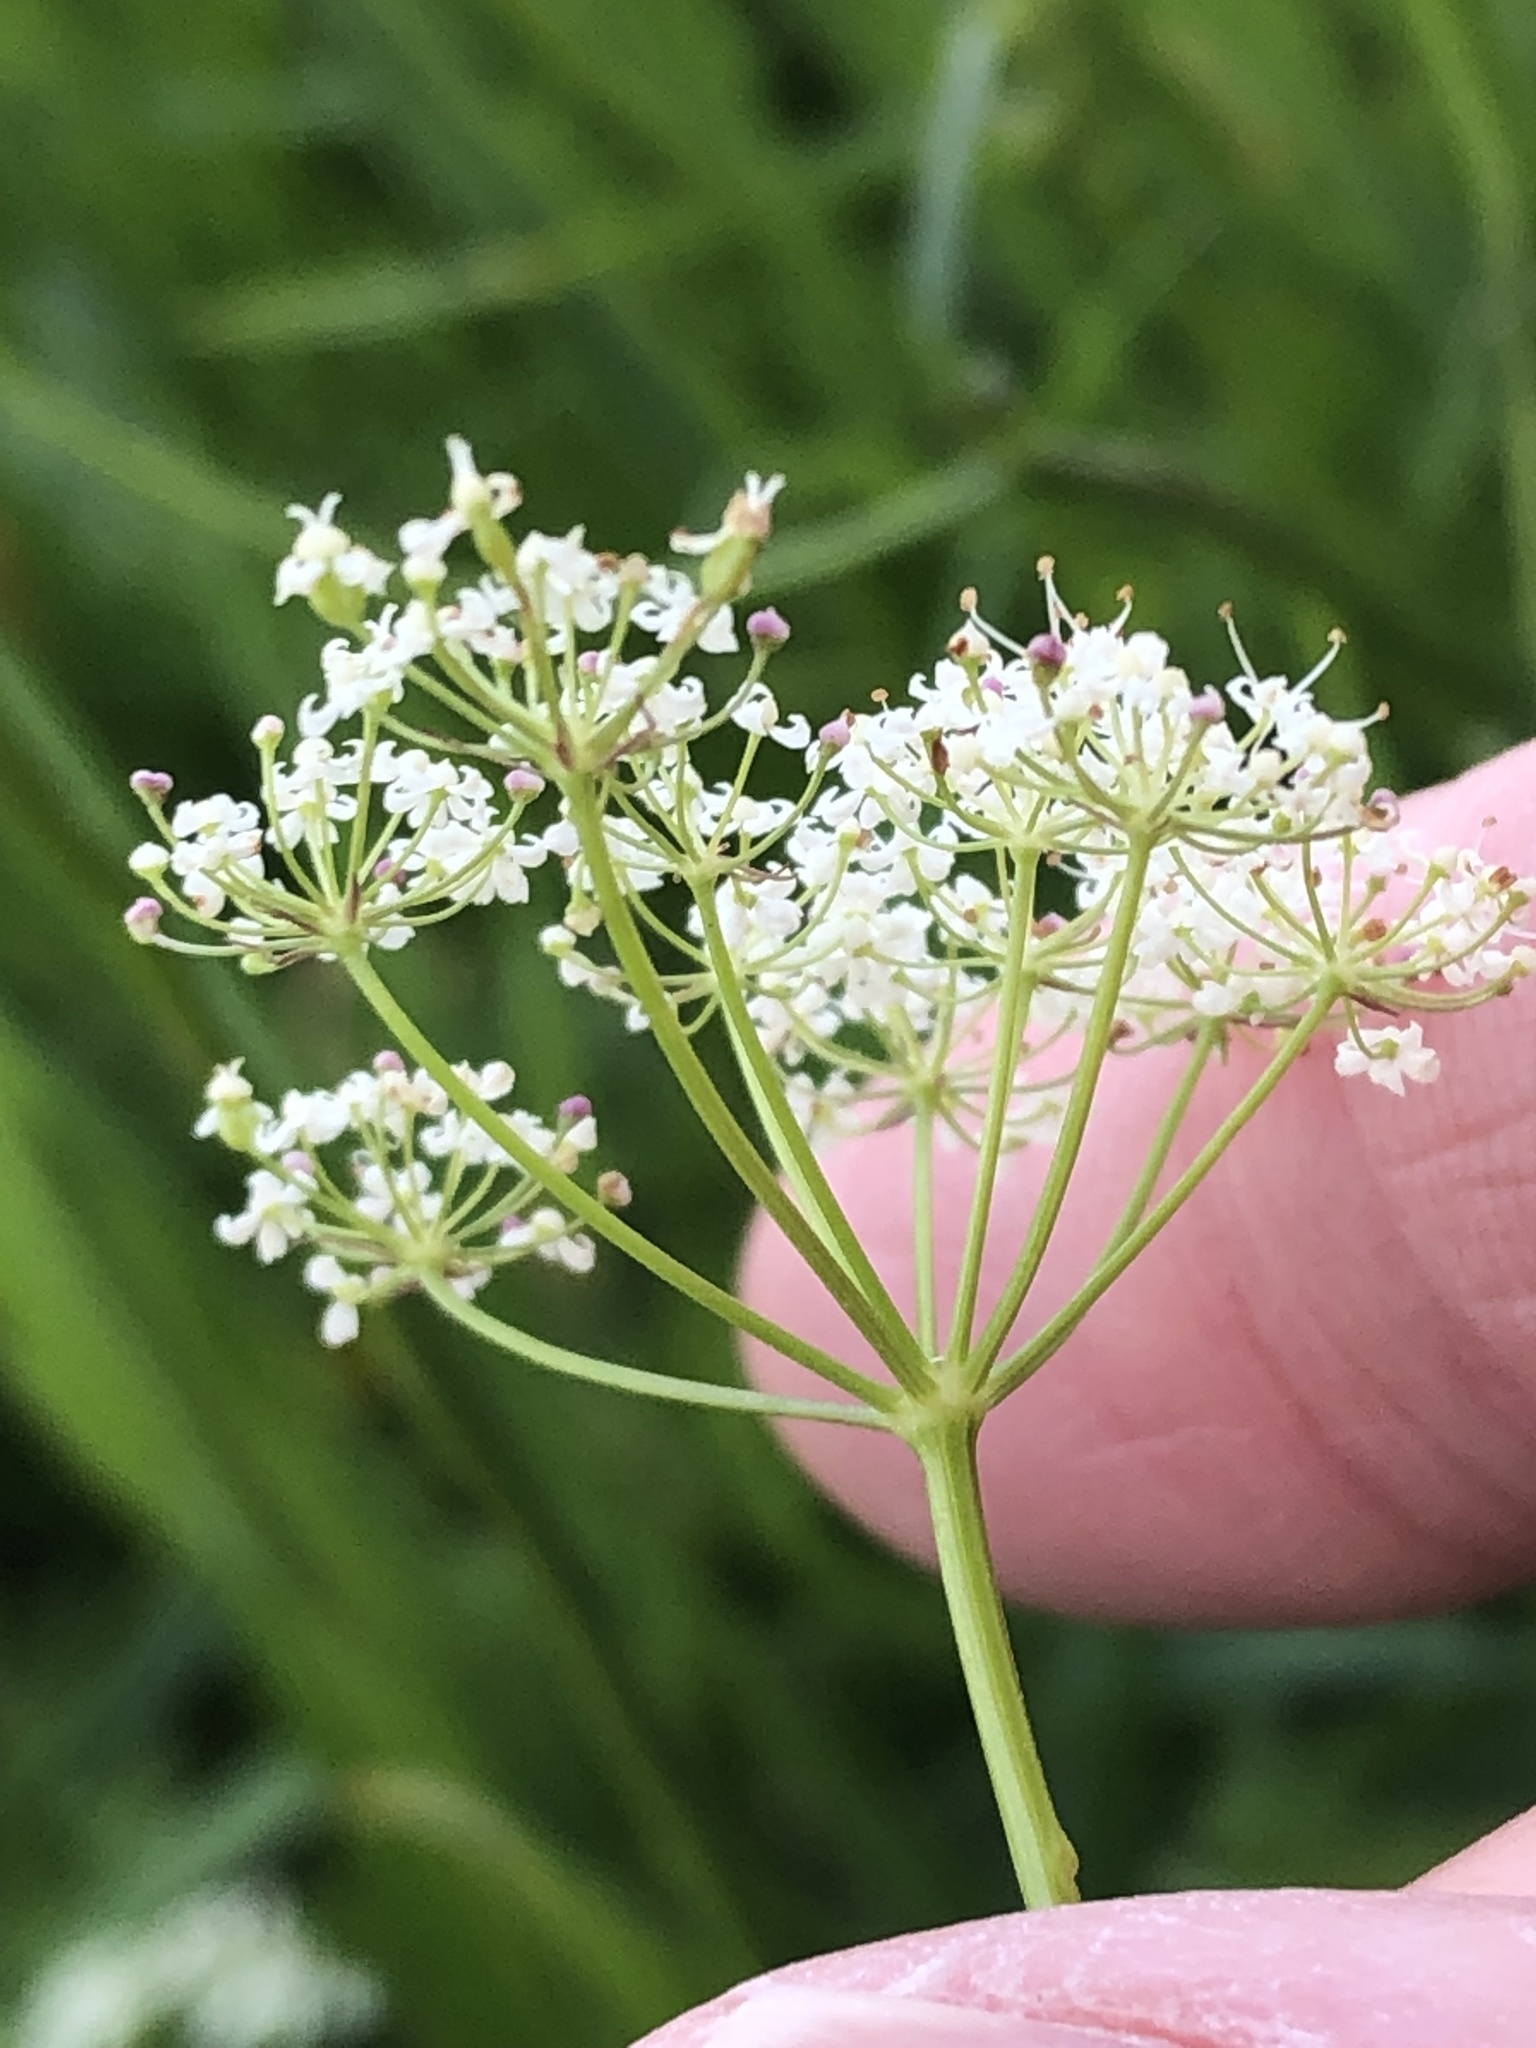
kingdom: Plantae
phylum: Tracheophyta
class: Magnoliopsida
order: Apiales
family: Apiaceae
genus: Conopodium
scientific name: Conopodium majus
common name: Pignut
